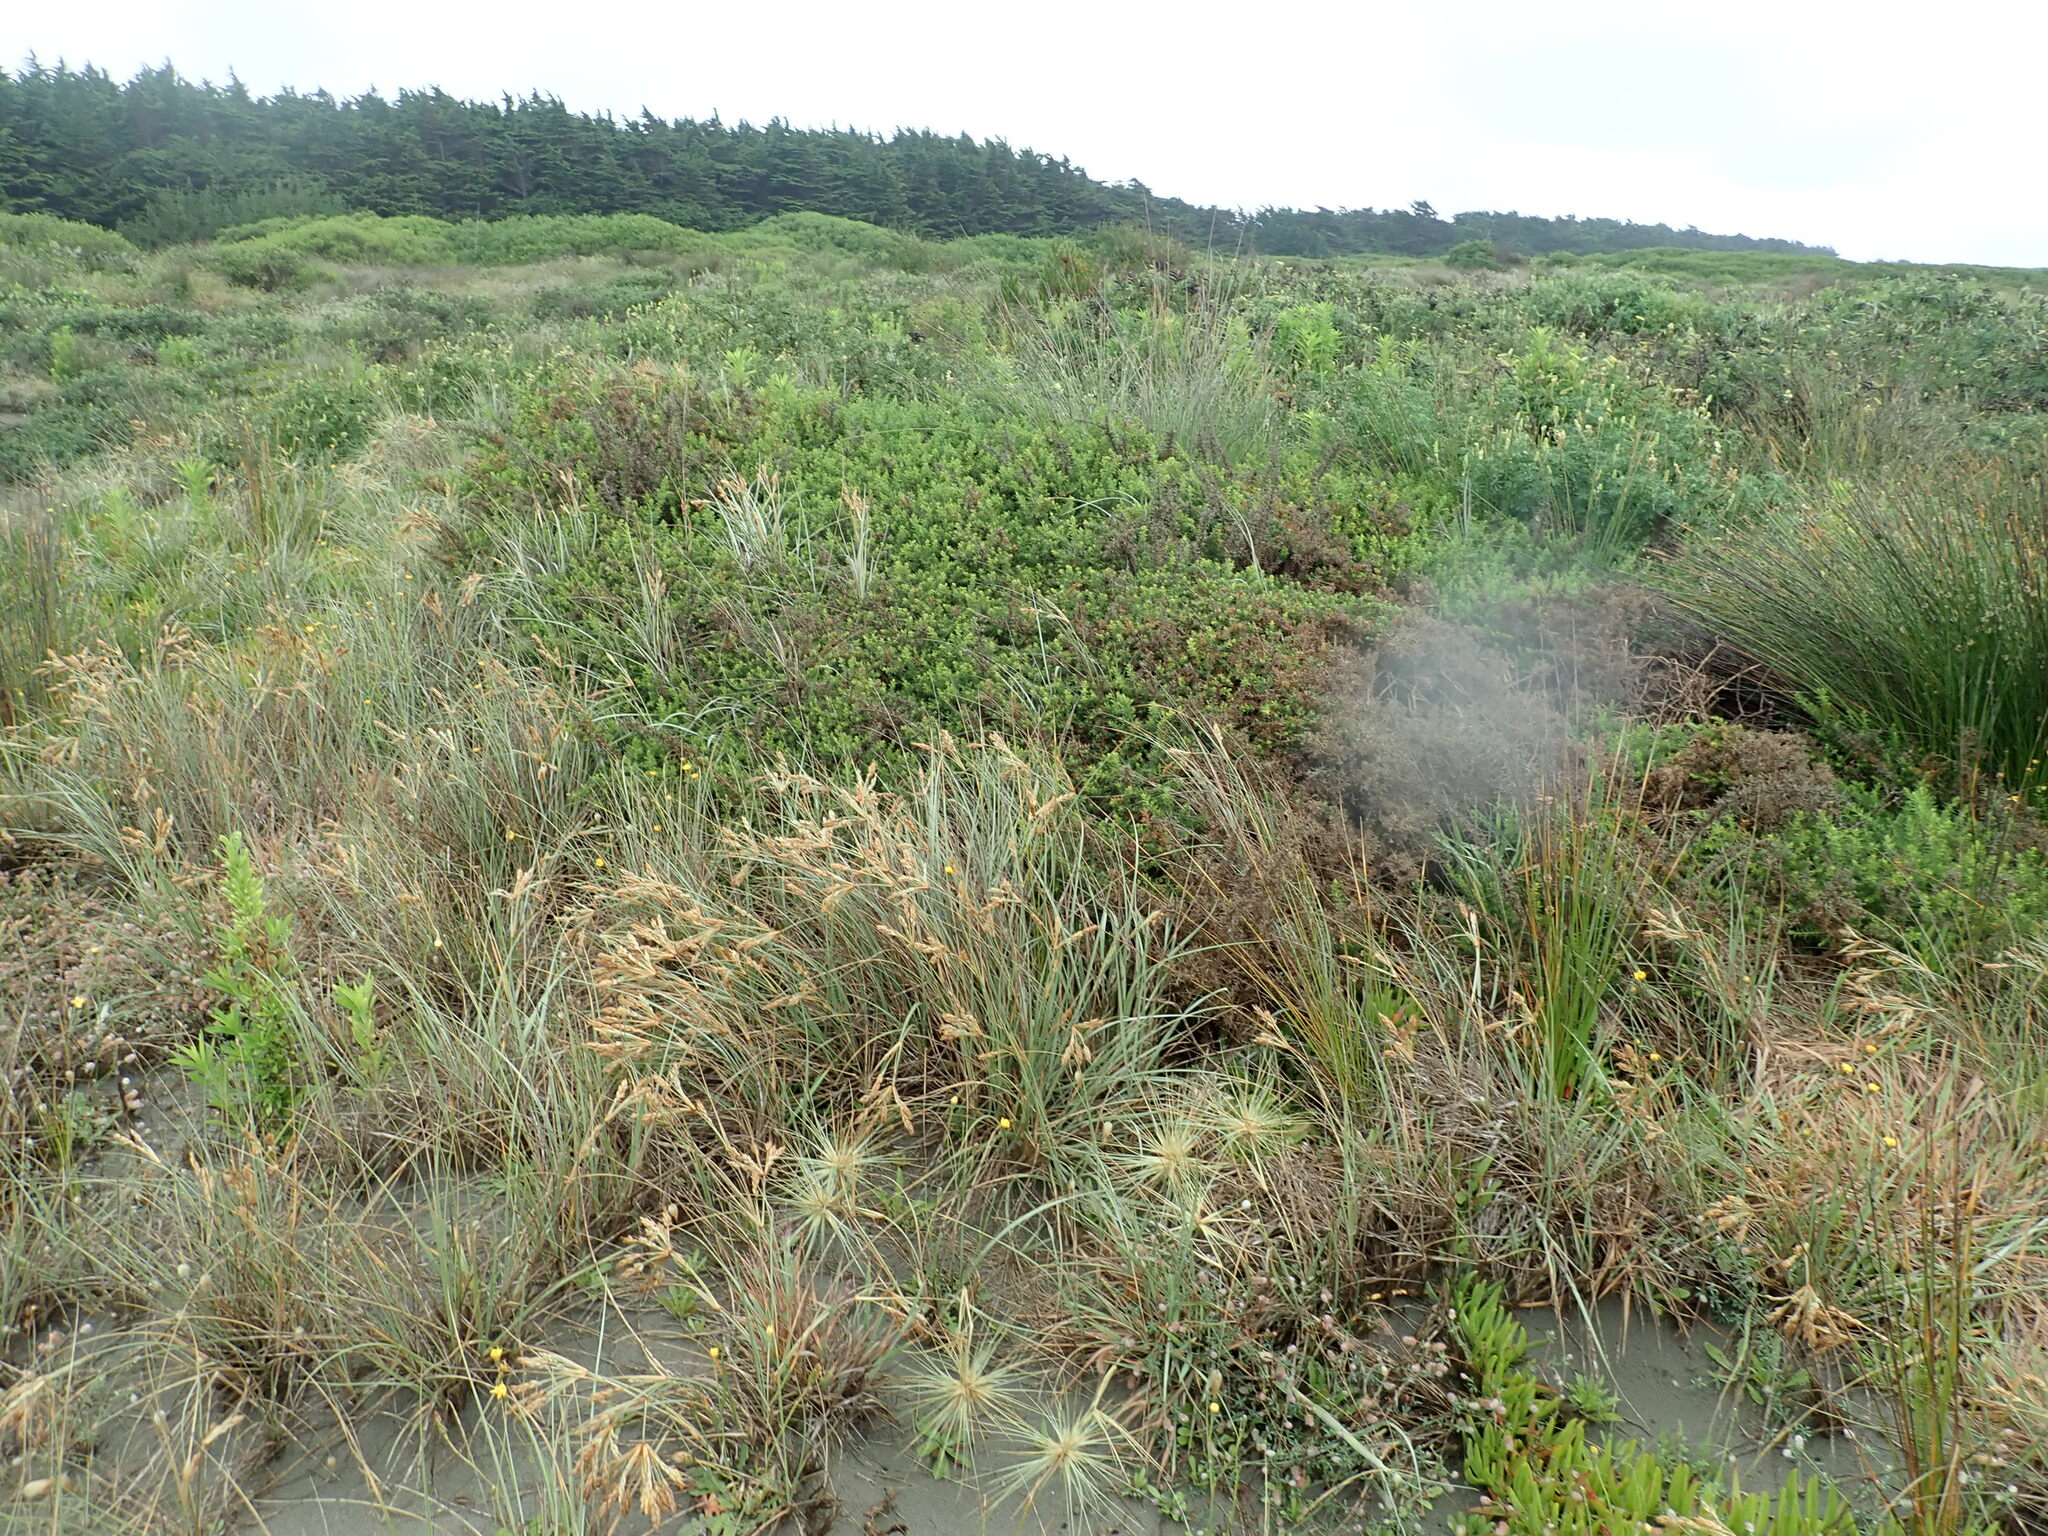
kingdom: Plantae
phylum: Tracheophyta
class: Magnoliopsida
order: Fabales
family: Fabaceae
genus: Ulex
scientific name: Ulex europaeus
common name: Common gorse
